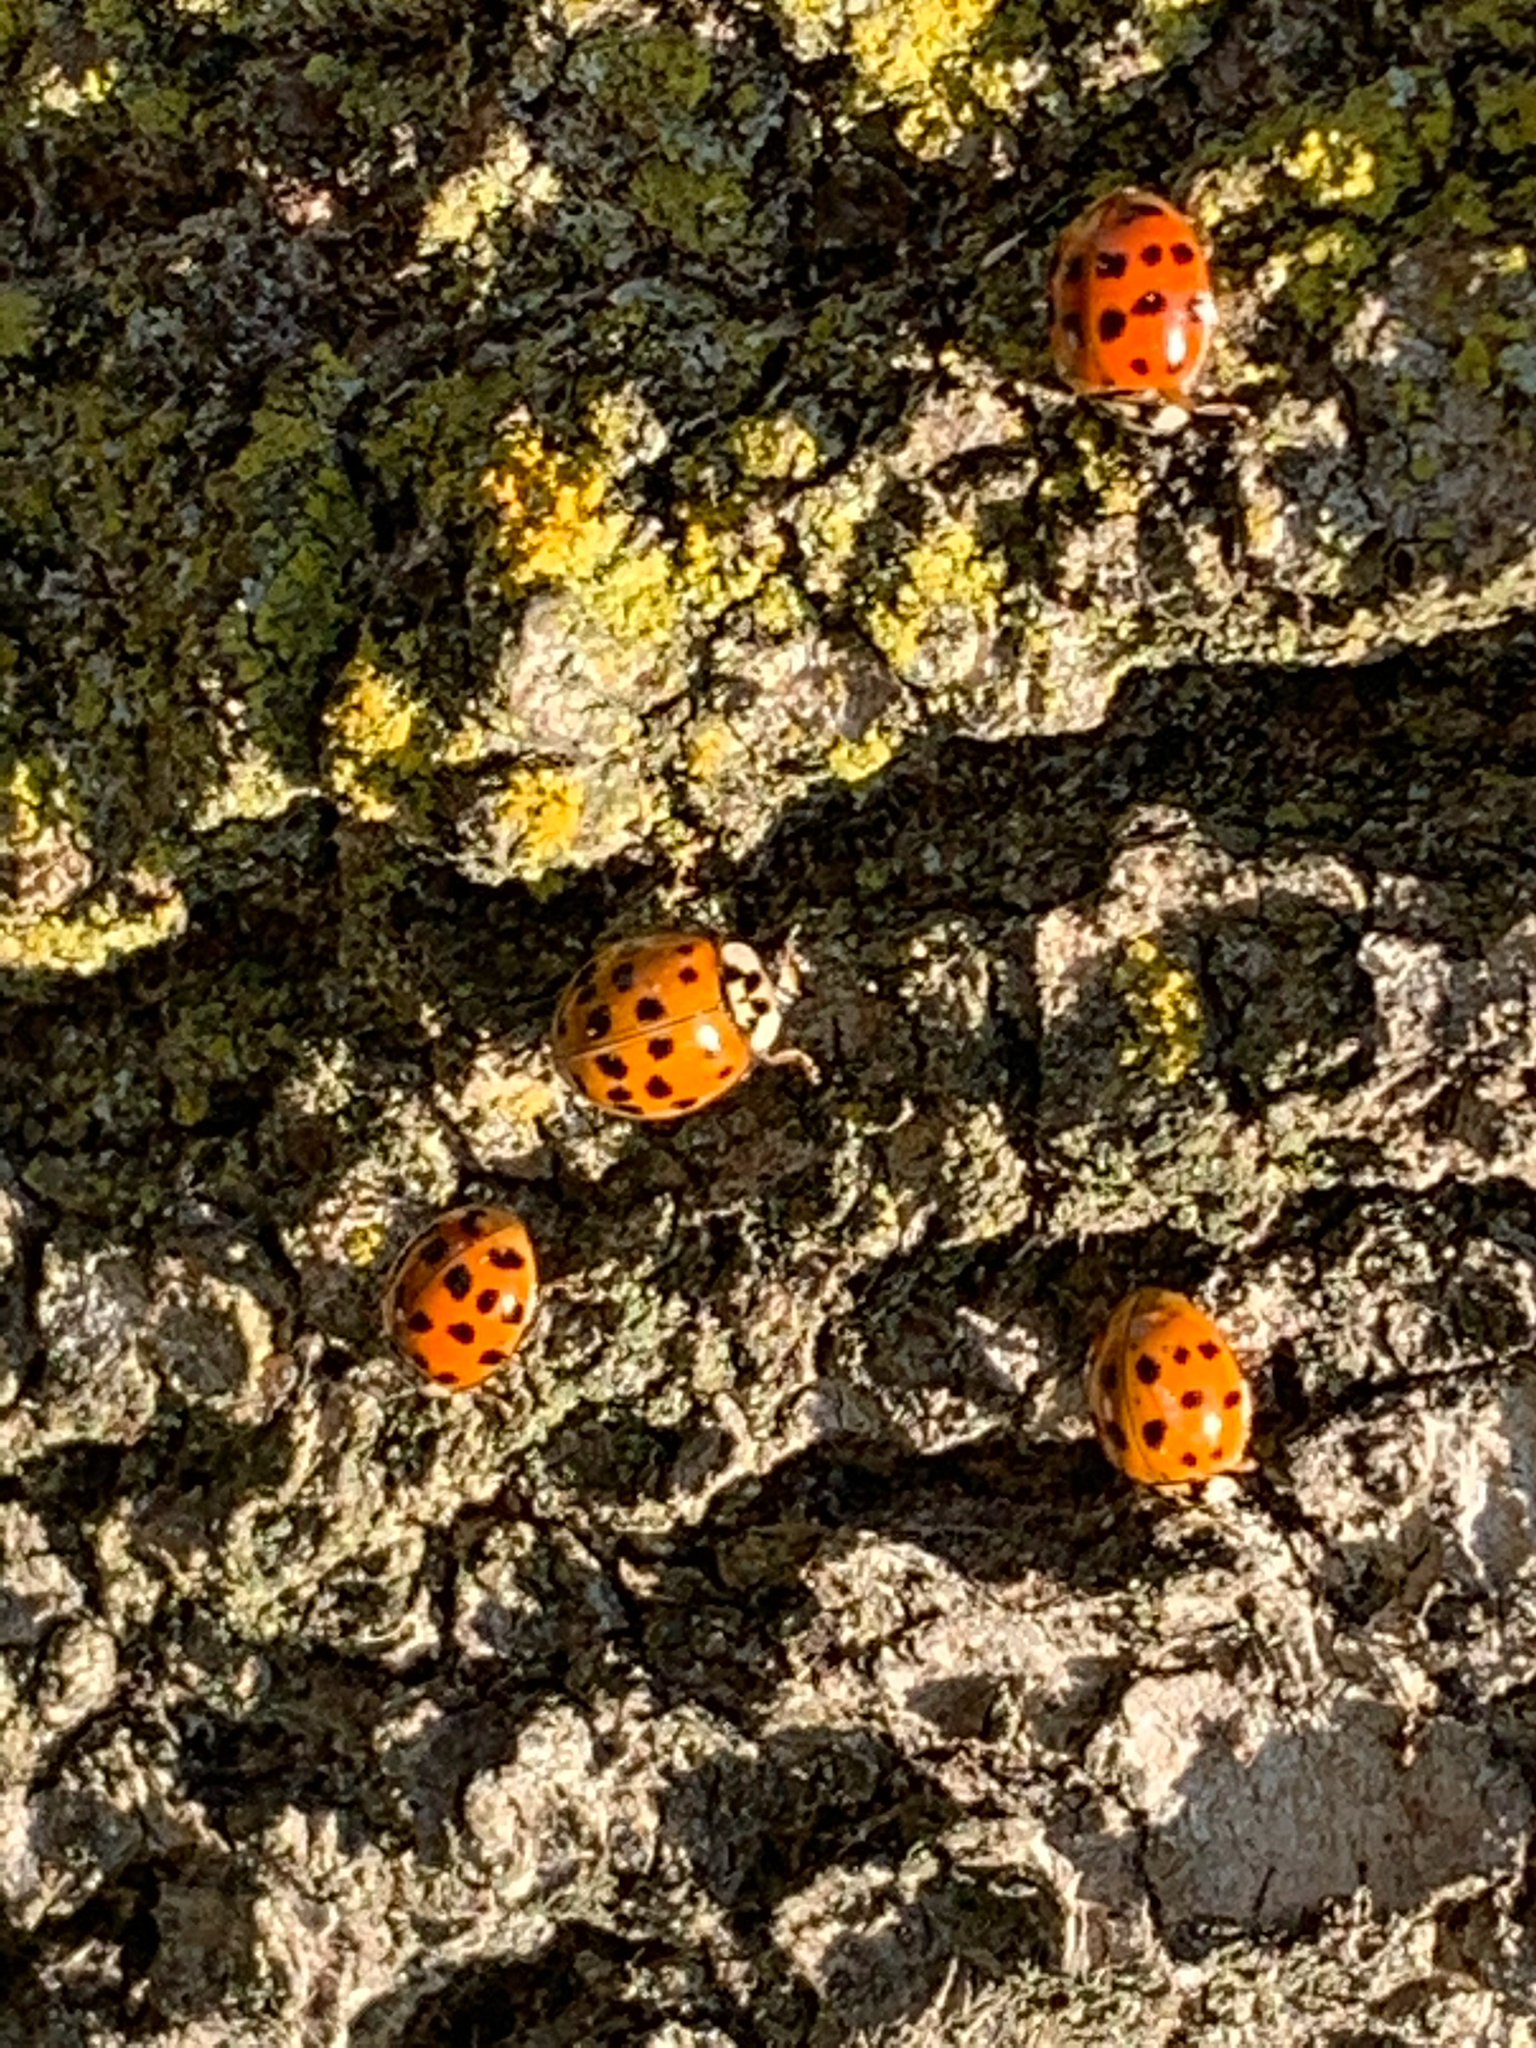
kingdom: Animalia
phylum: Arthropoda
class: Insecta
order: Coleoptera
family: Coccinellidae
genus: Harmonia
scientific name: Harmonia axyridis
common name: Harlequin ladybird
